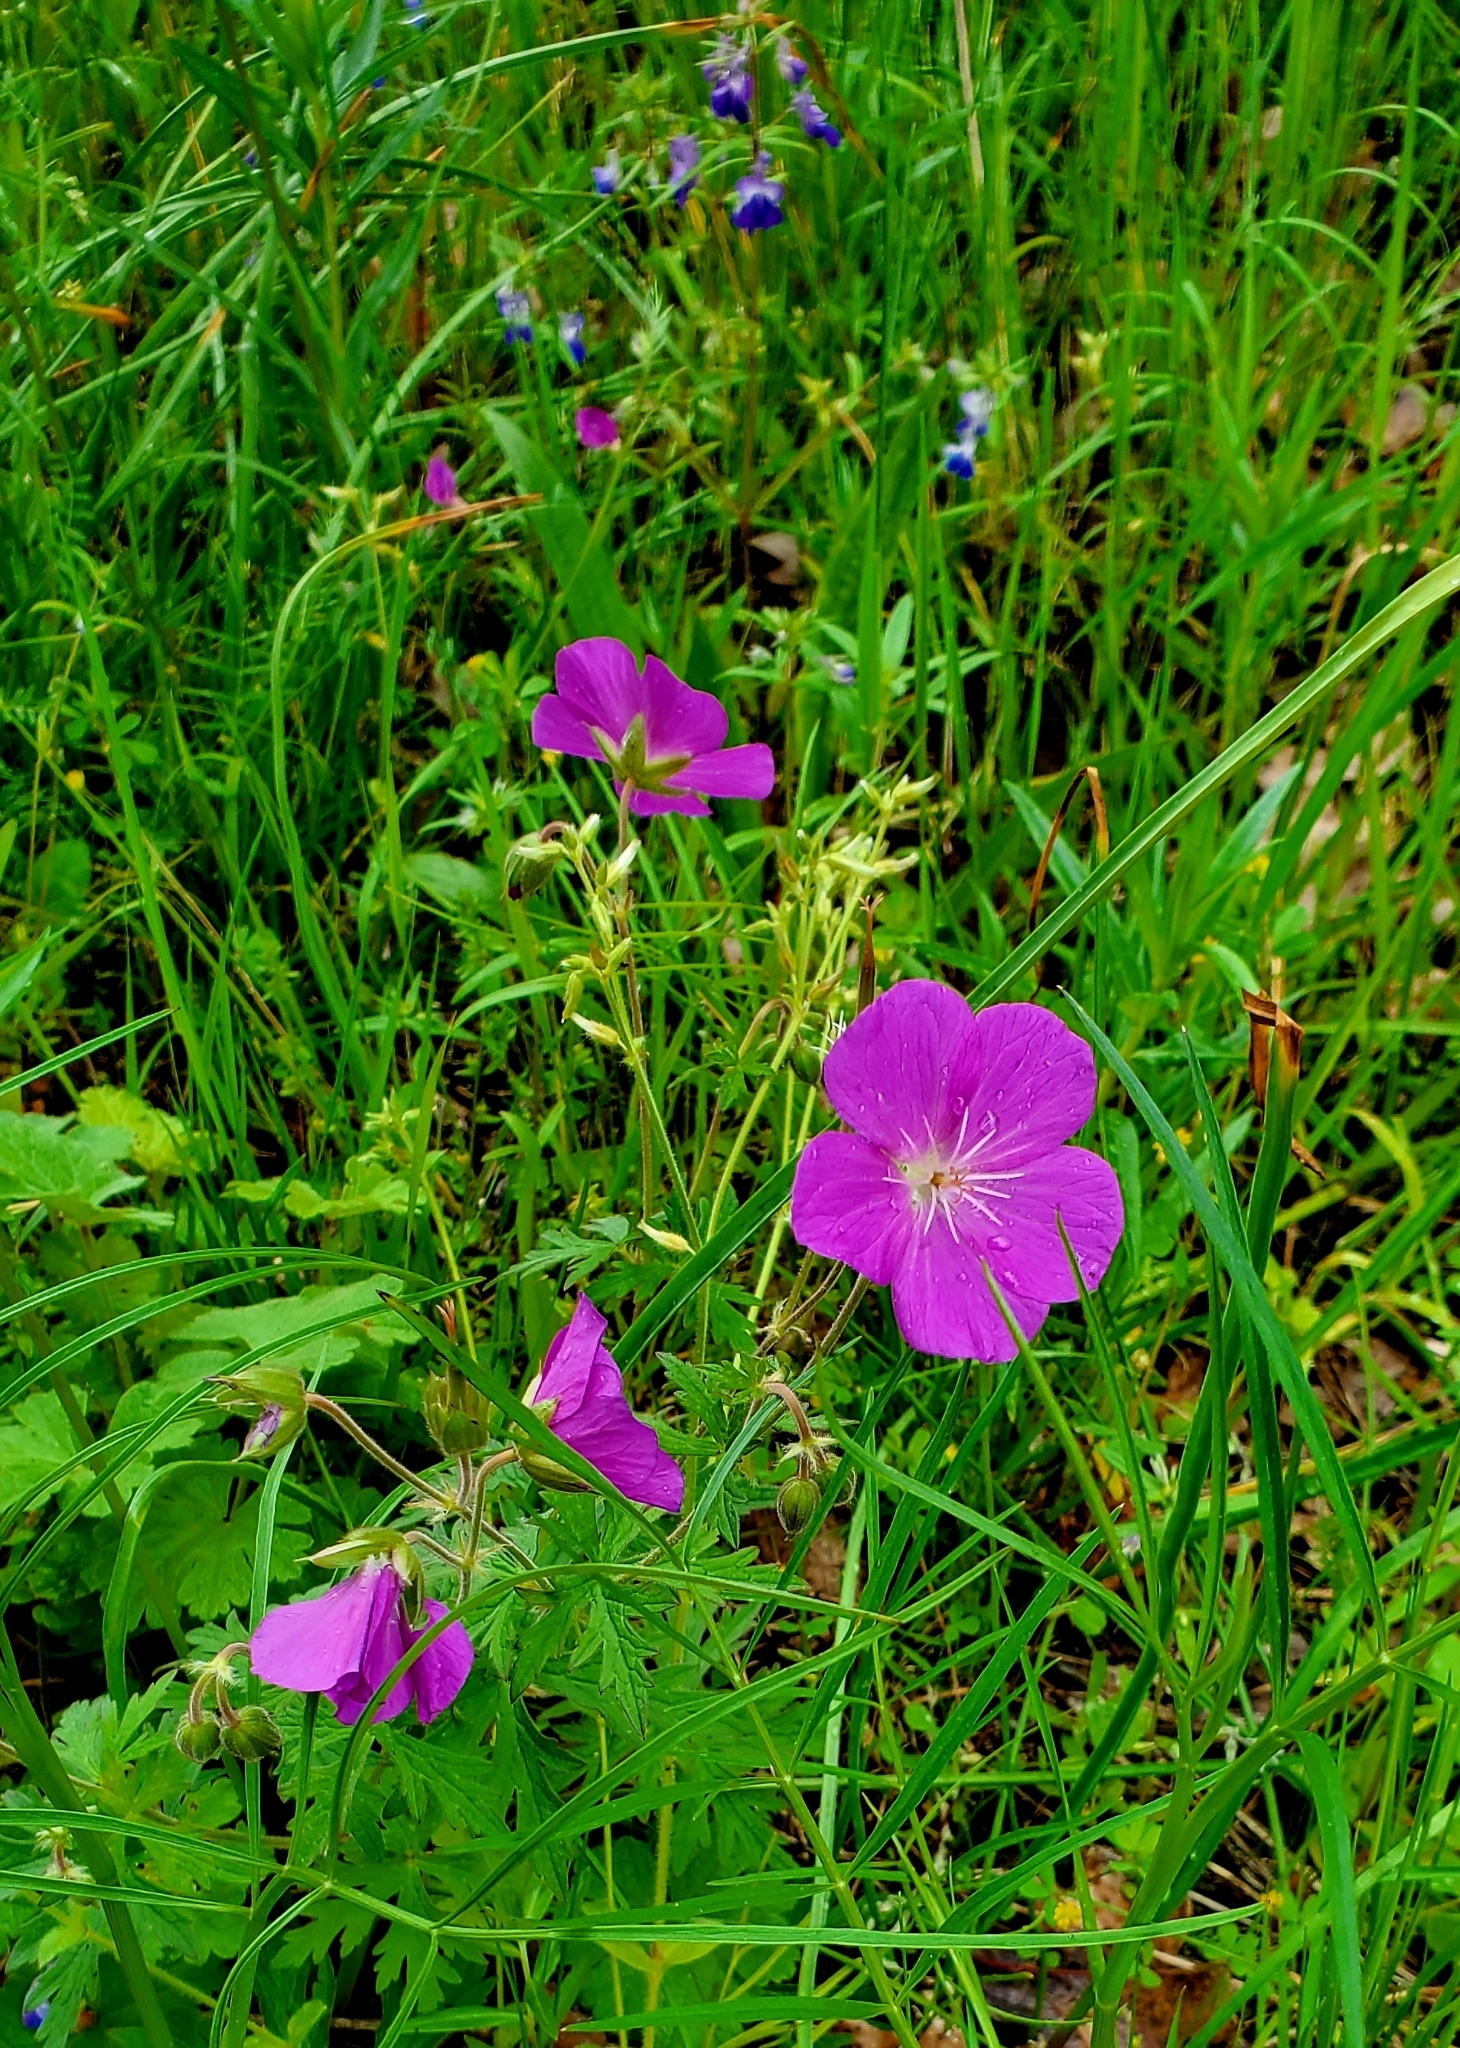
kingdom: Plantae
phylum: Tracheophyta
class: Magnoliopsida
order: Geraniales
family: Geraniaceae
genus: Geranium
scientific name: Geranium oreganum
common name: Oregon crane's-bill
